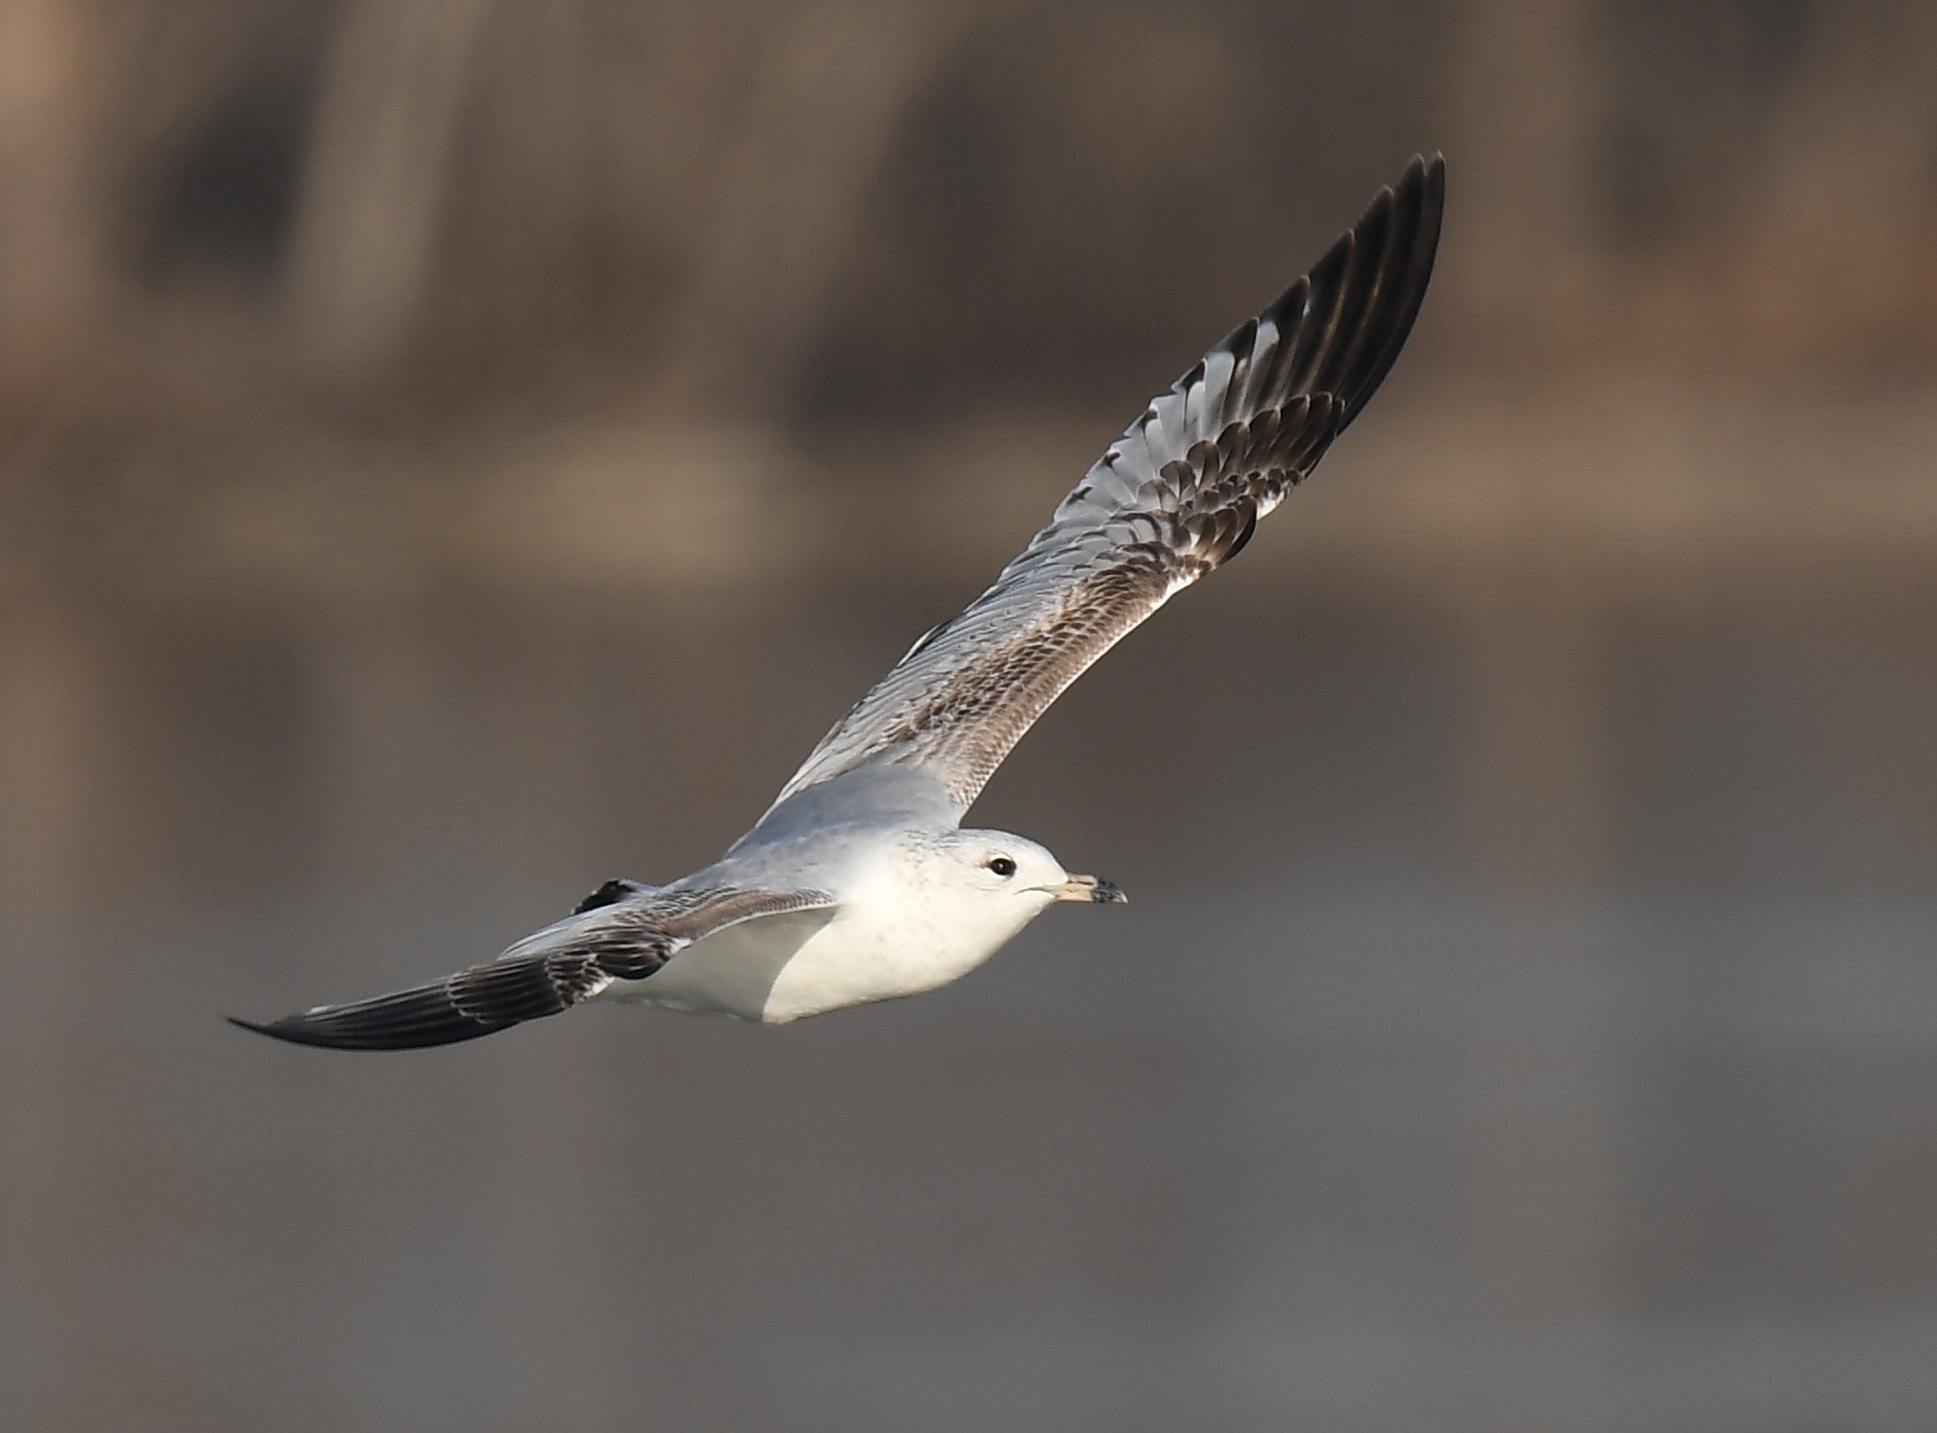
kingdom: Animalia
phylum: Chordata
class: Aves
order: Charadriiformes
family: Laridae
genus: Larus
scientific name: Larus delawarensis
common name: Ring-billed gull
